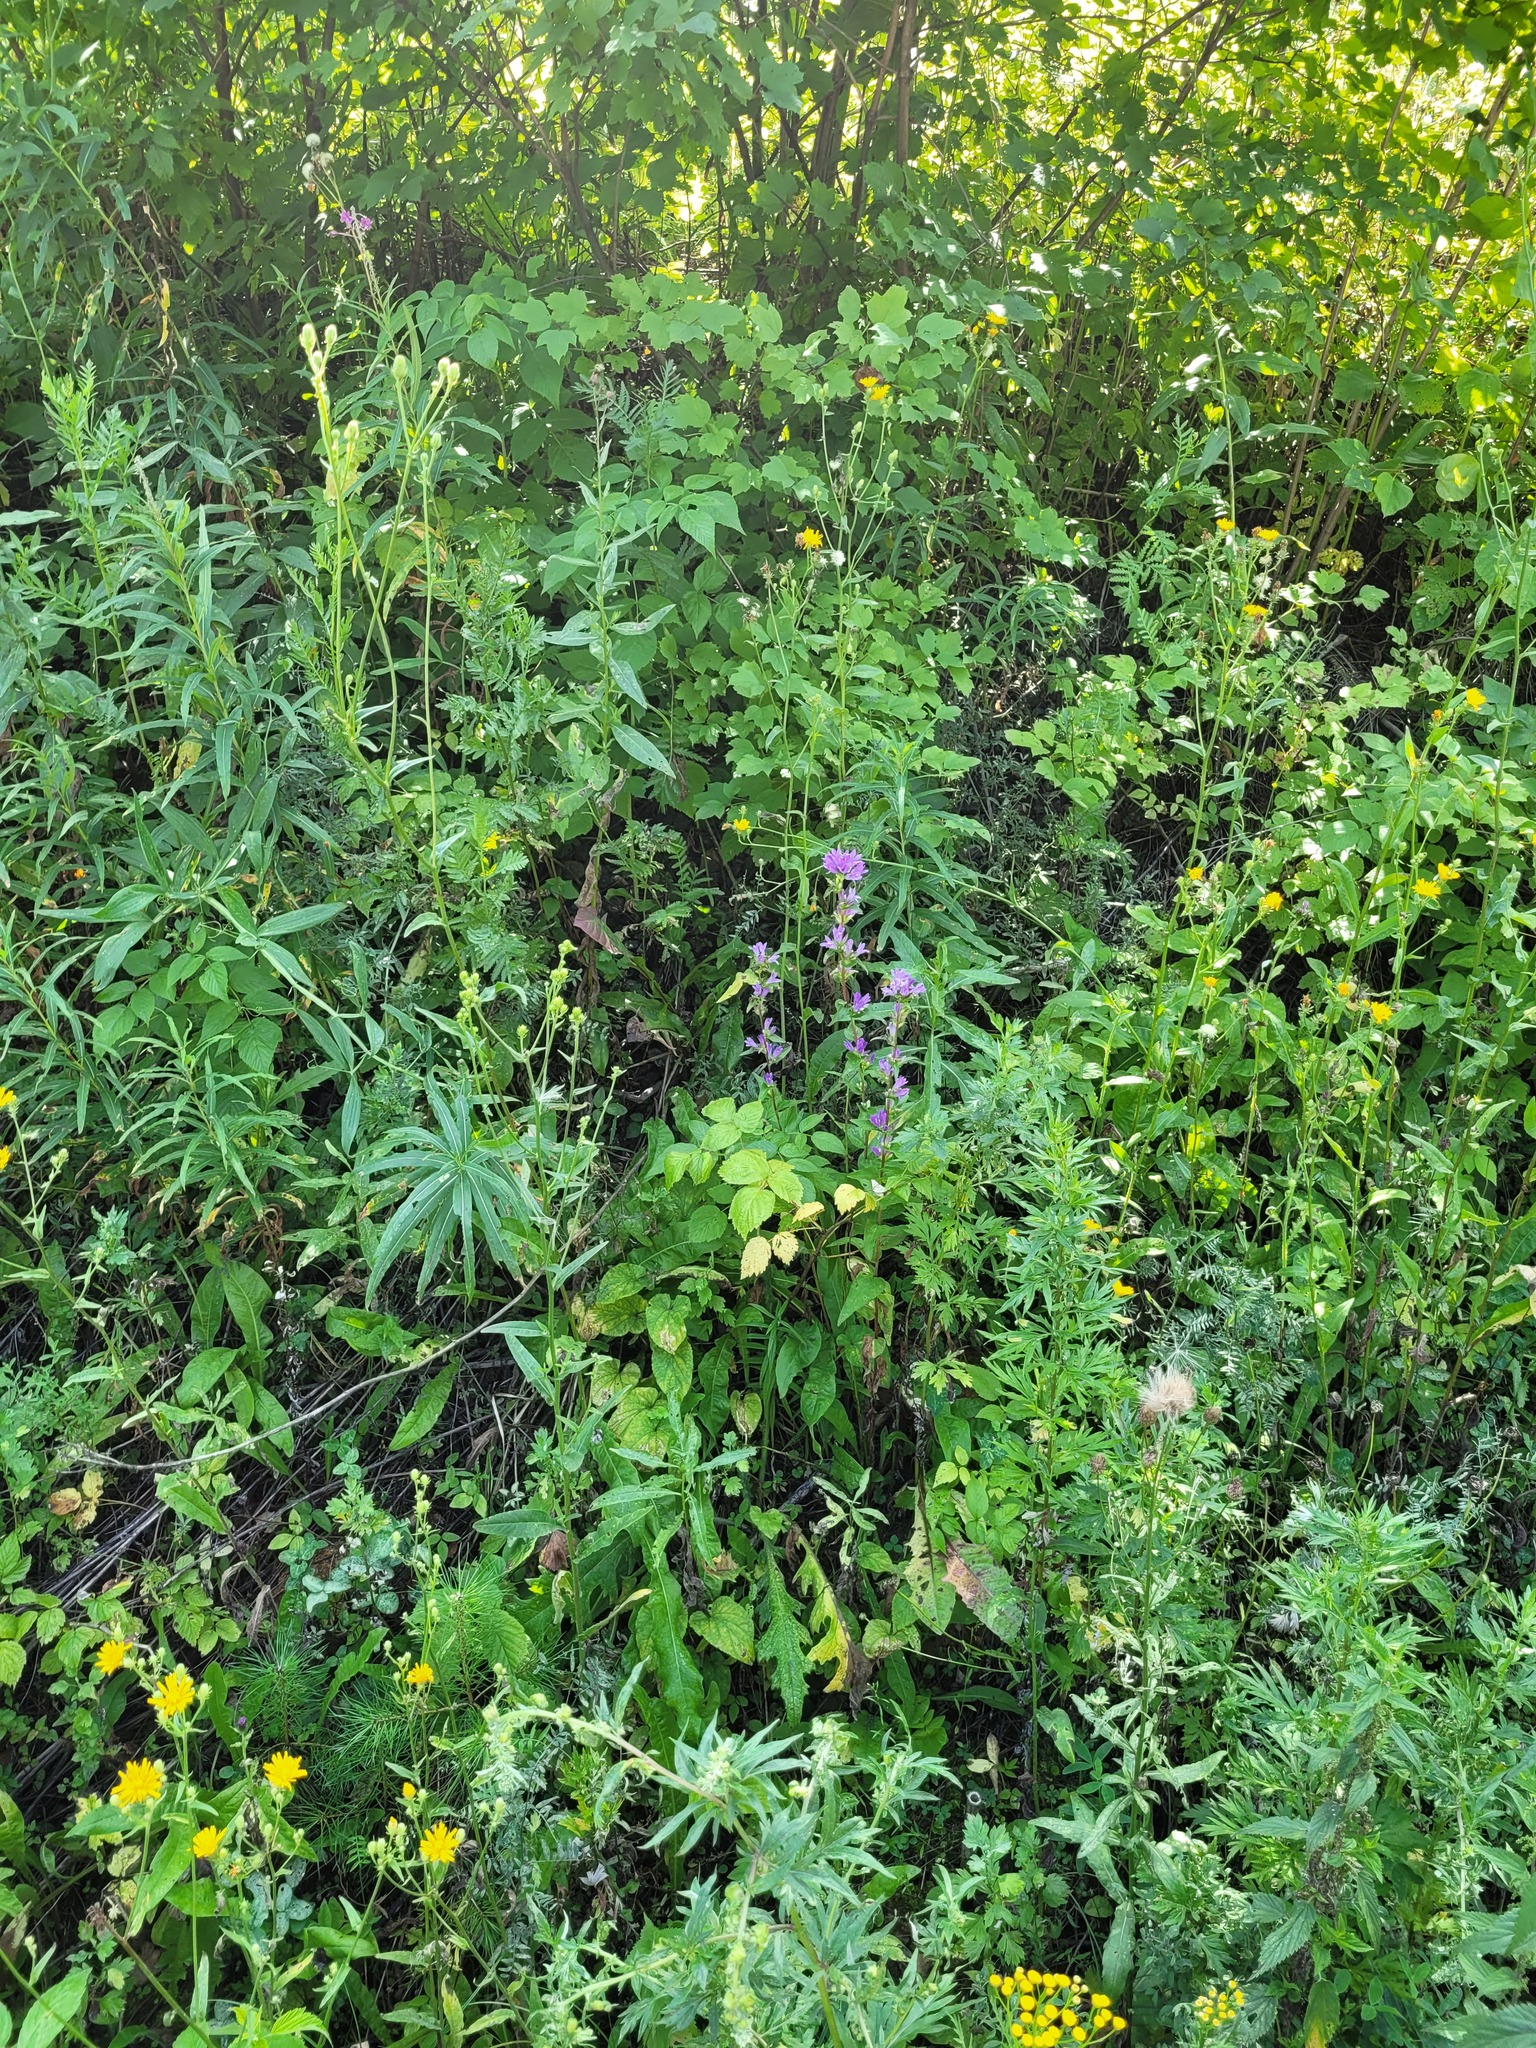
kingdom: Plantae
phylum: Tracheophyta
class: Magnoliopsida
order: Asterales
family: Campanulaceae
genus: Campanula
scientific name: Campanula glomerata
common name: Clustered bellflower
